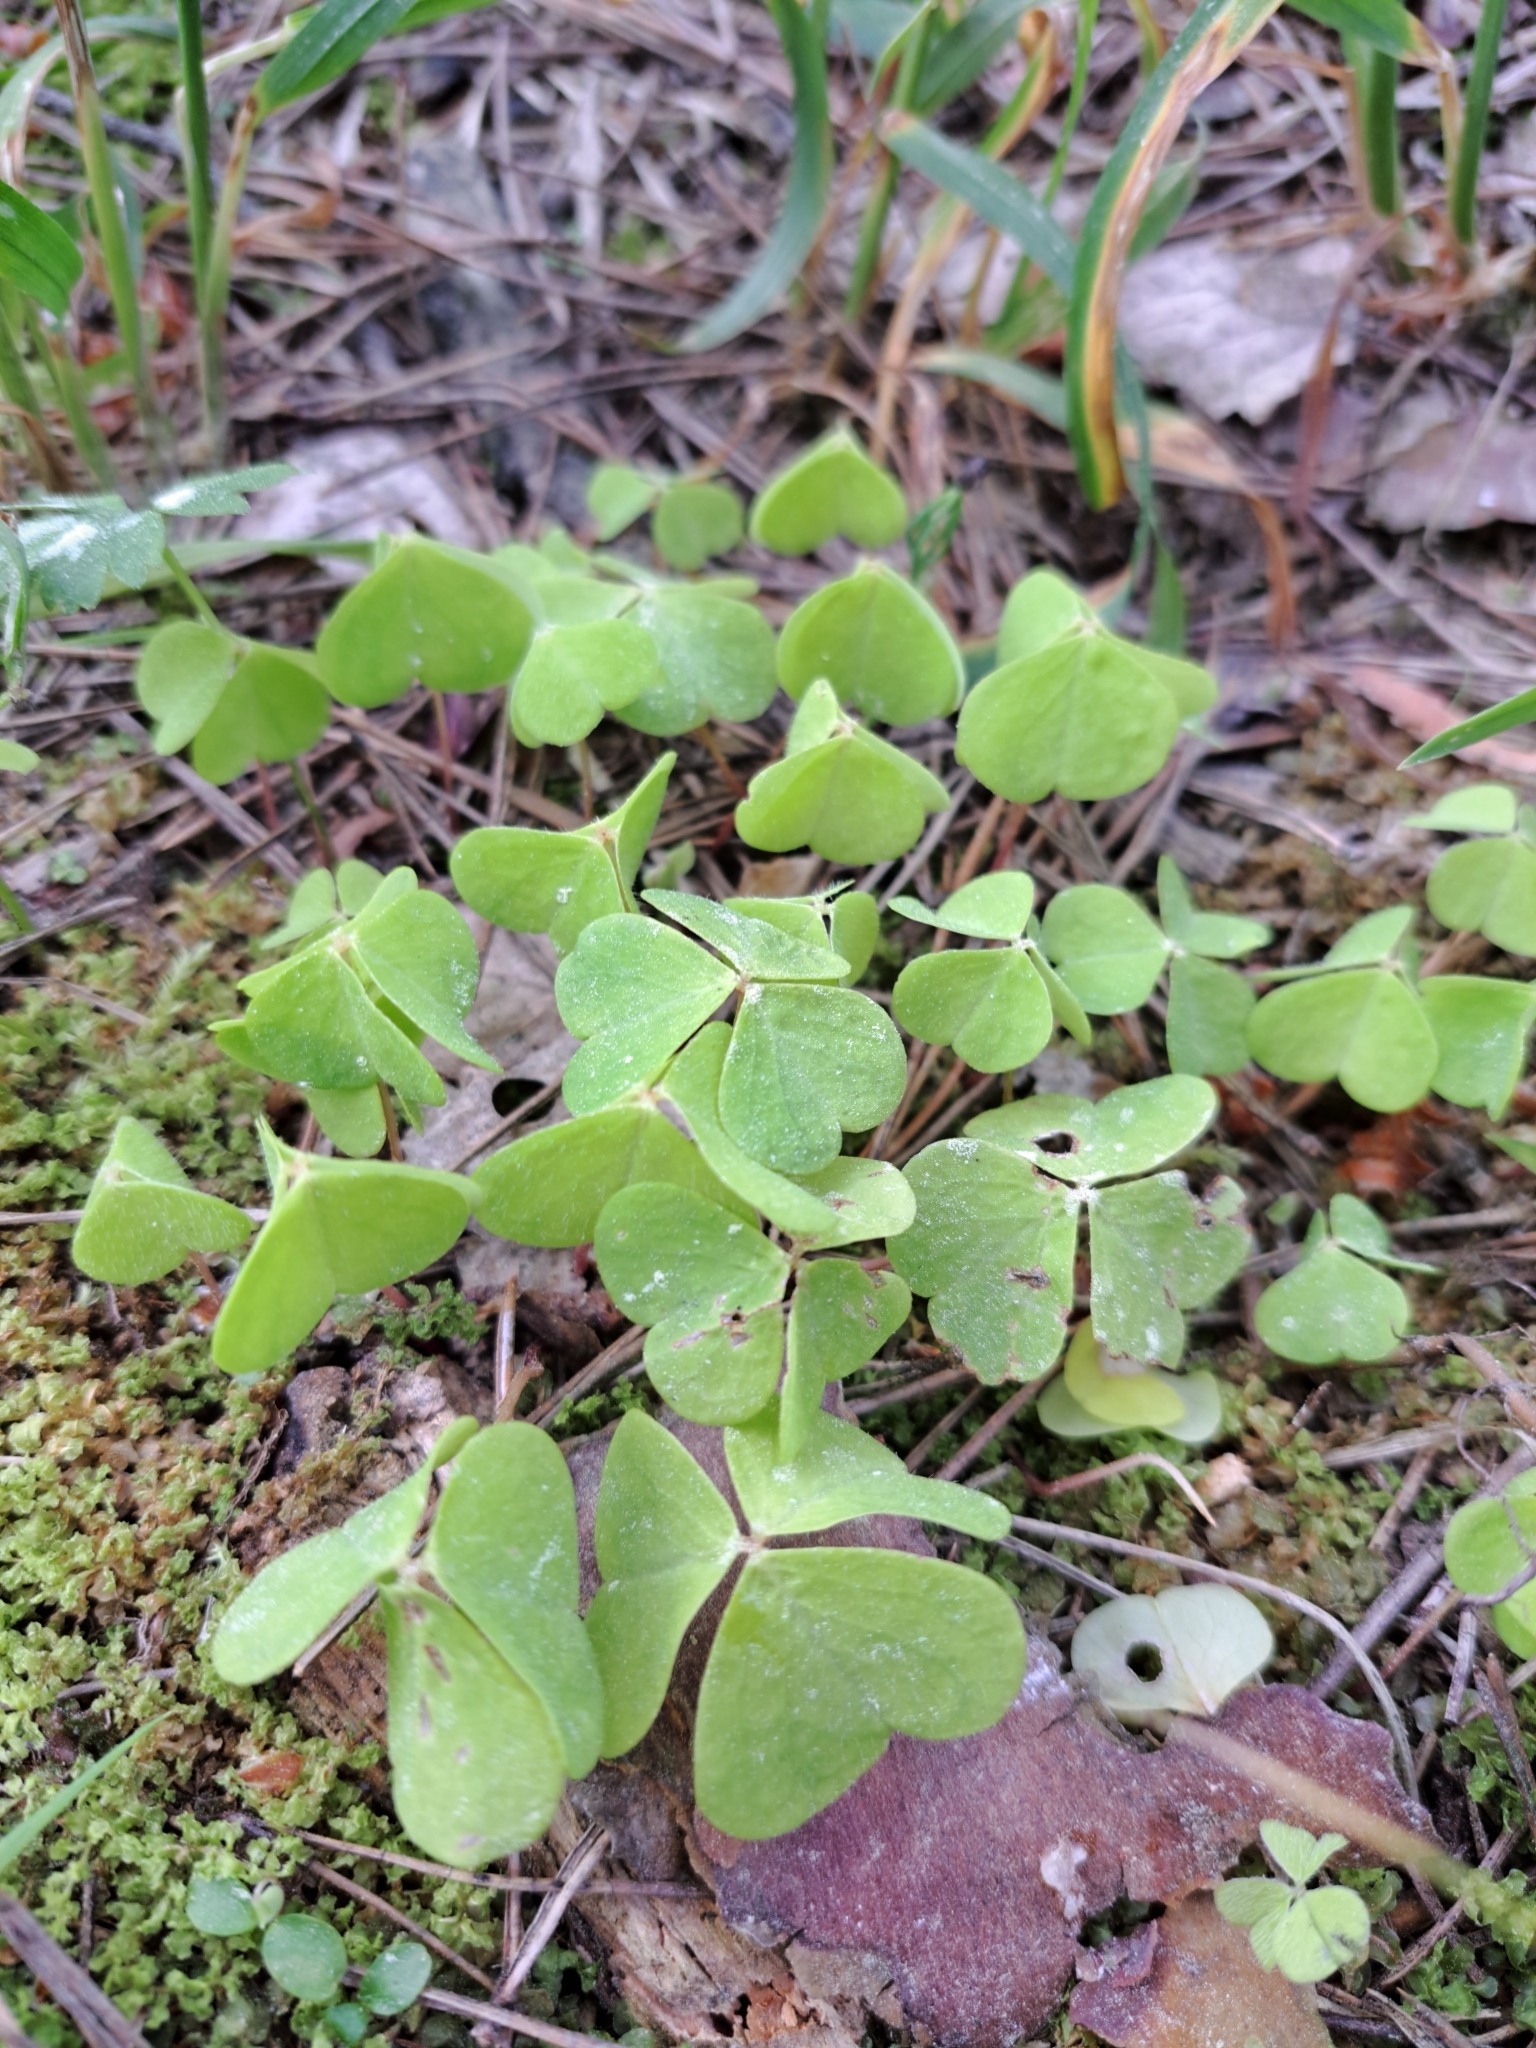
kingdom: Plantae
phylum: Tracheophyta
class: Magnoliopsida
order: Oxalidales
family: Oxalidaceae
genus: Oxalis
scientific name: Oxalis acetosella
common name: Wood-sorrel
